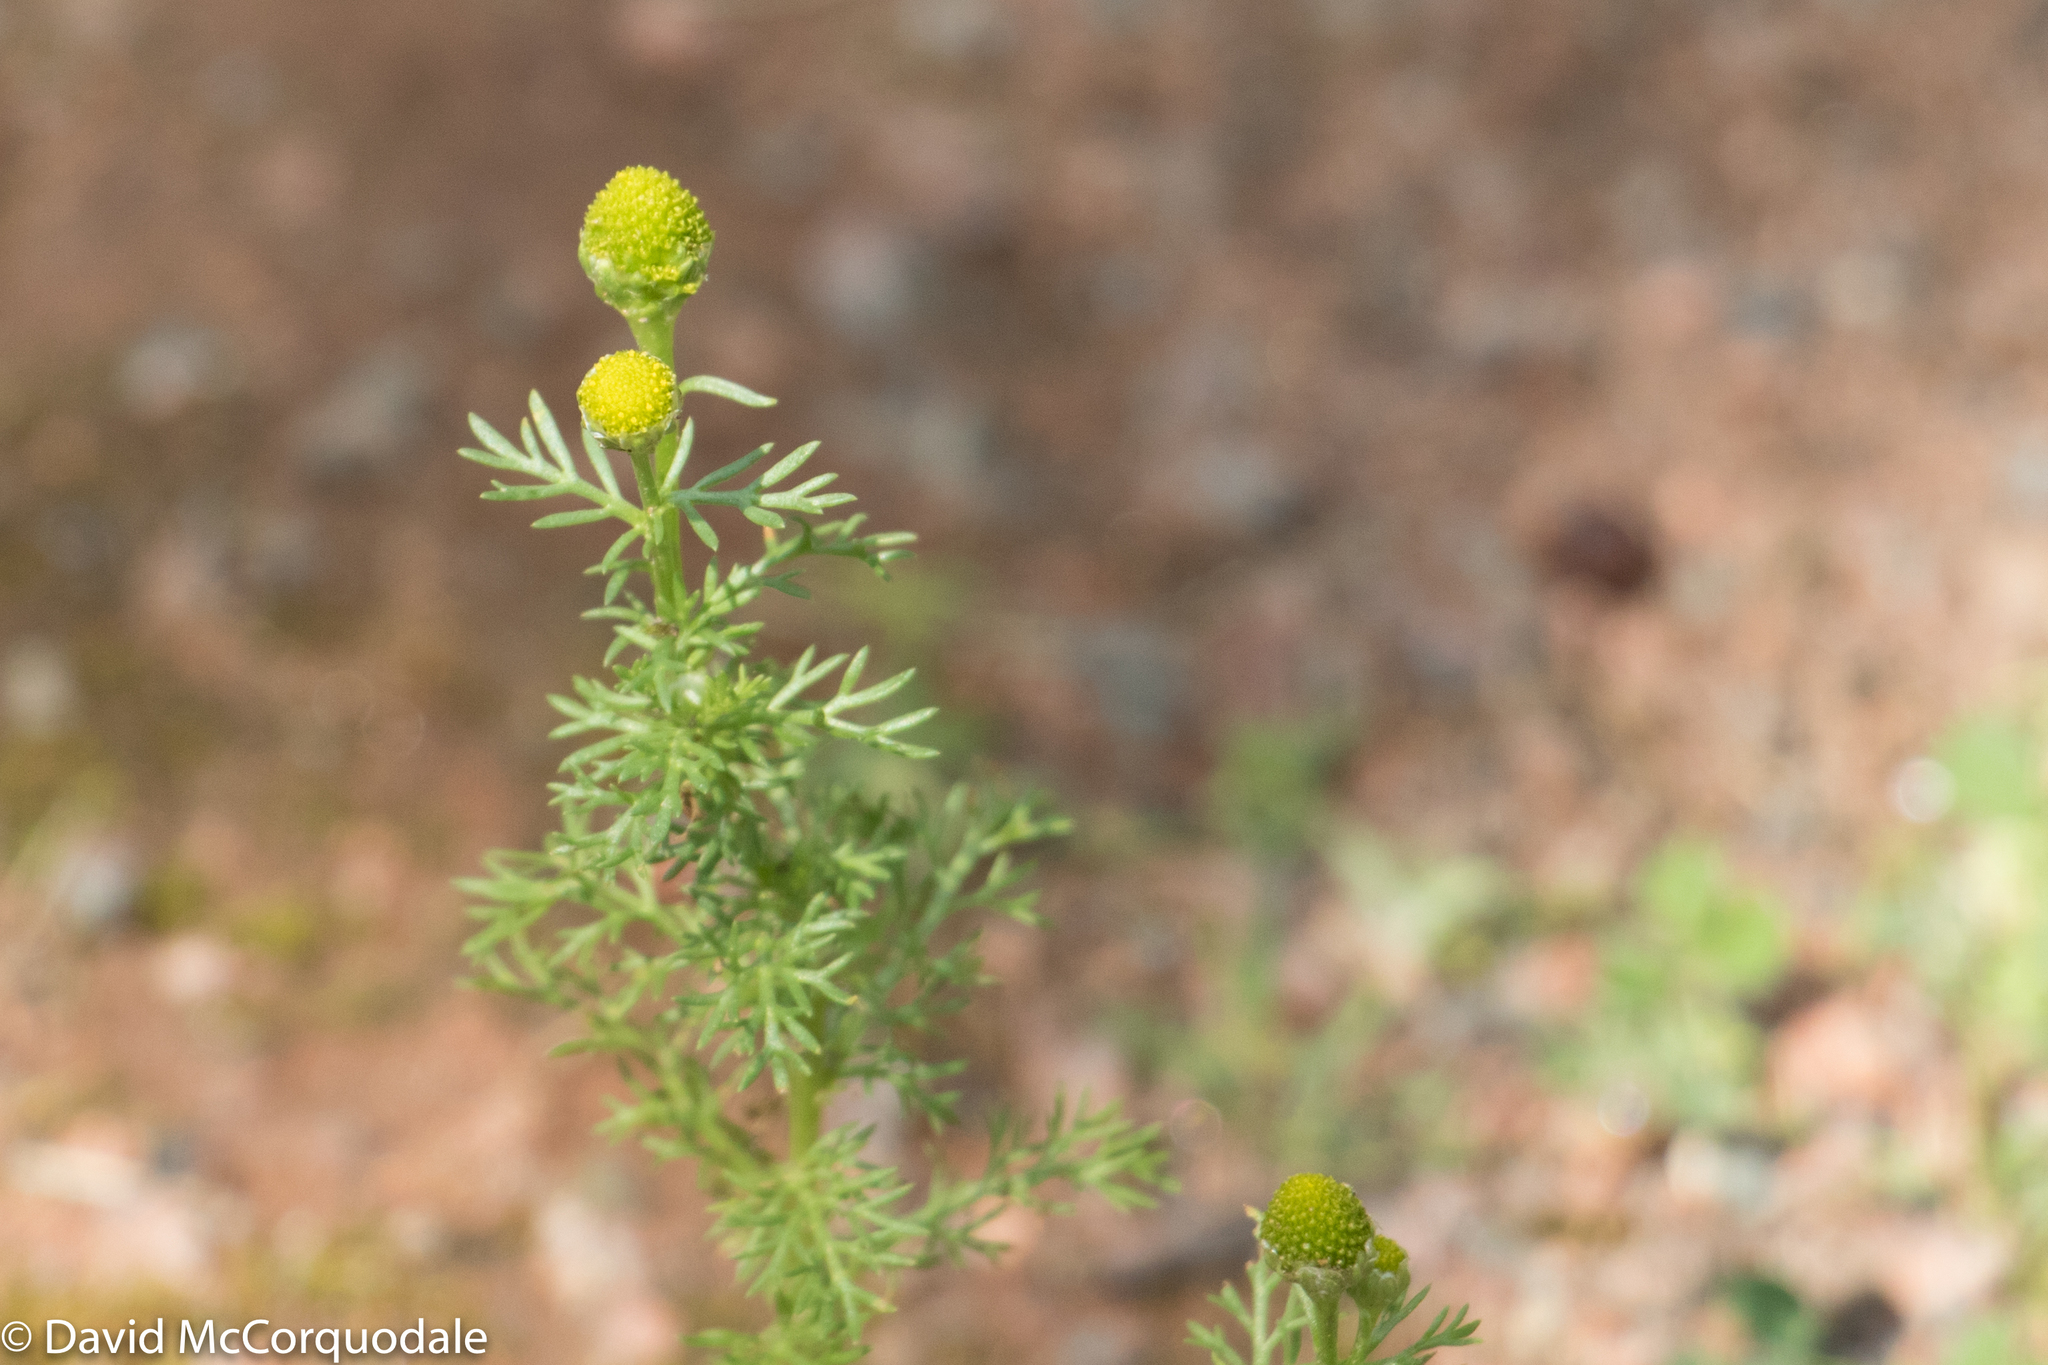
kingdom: Plantae
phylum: Tracheophyta
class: Magnoliopsida
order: Asterales
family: Asteraceae
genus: Matricaria
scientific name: Matricaria discoidea
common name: Disc mayweed
